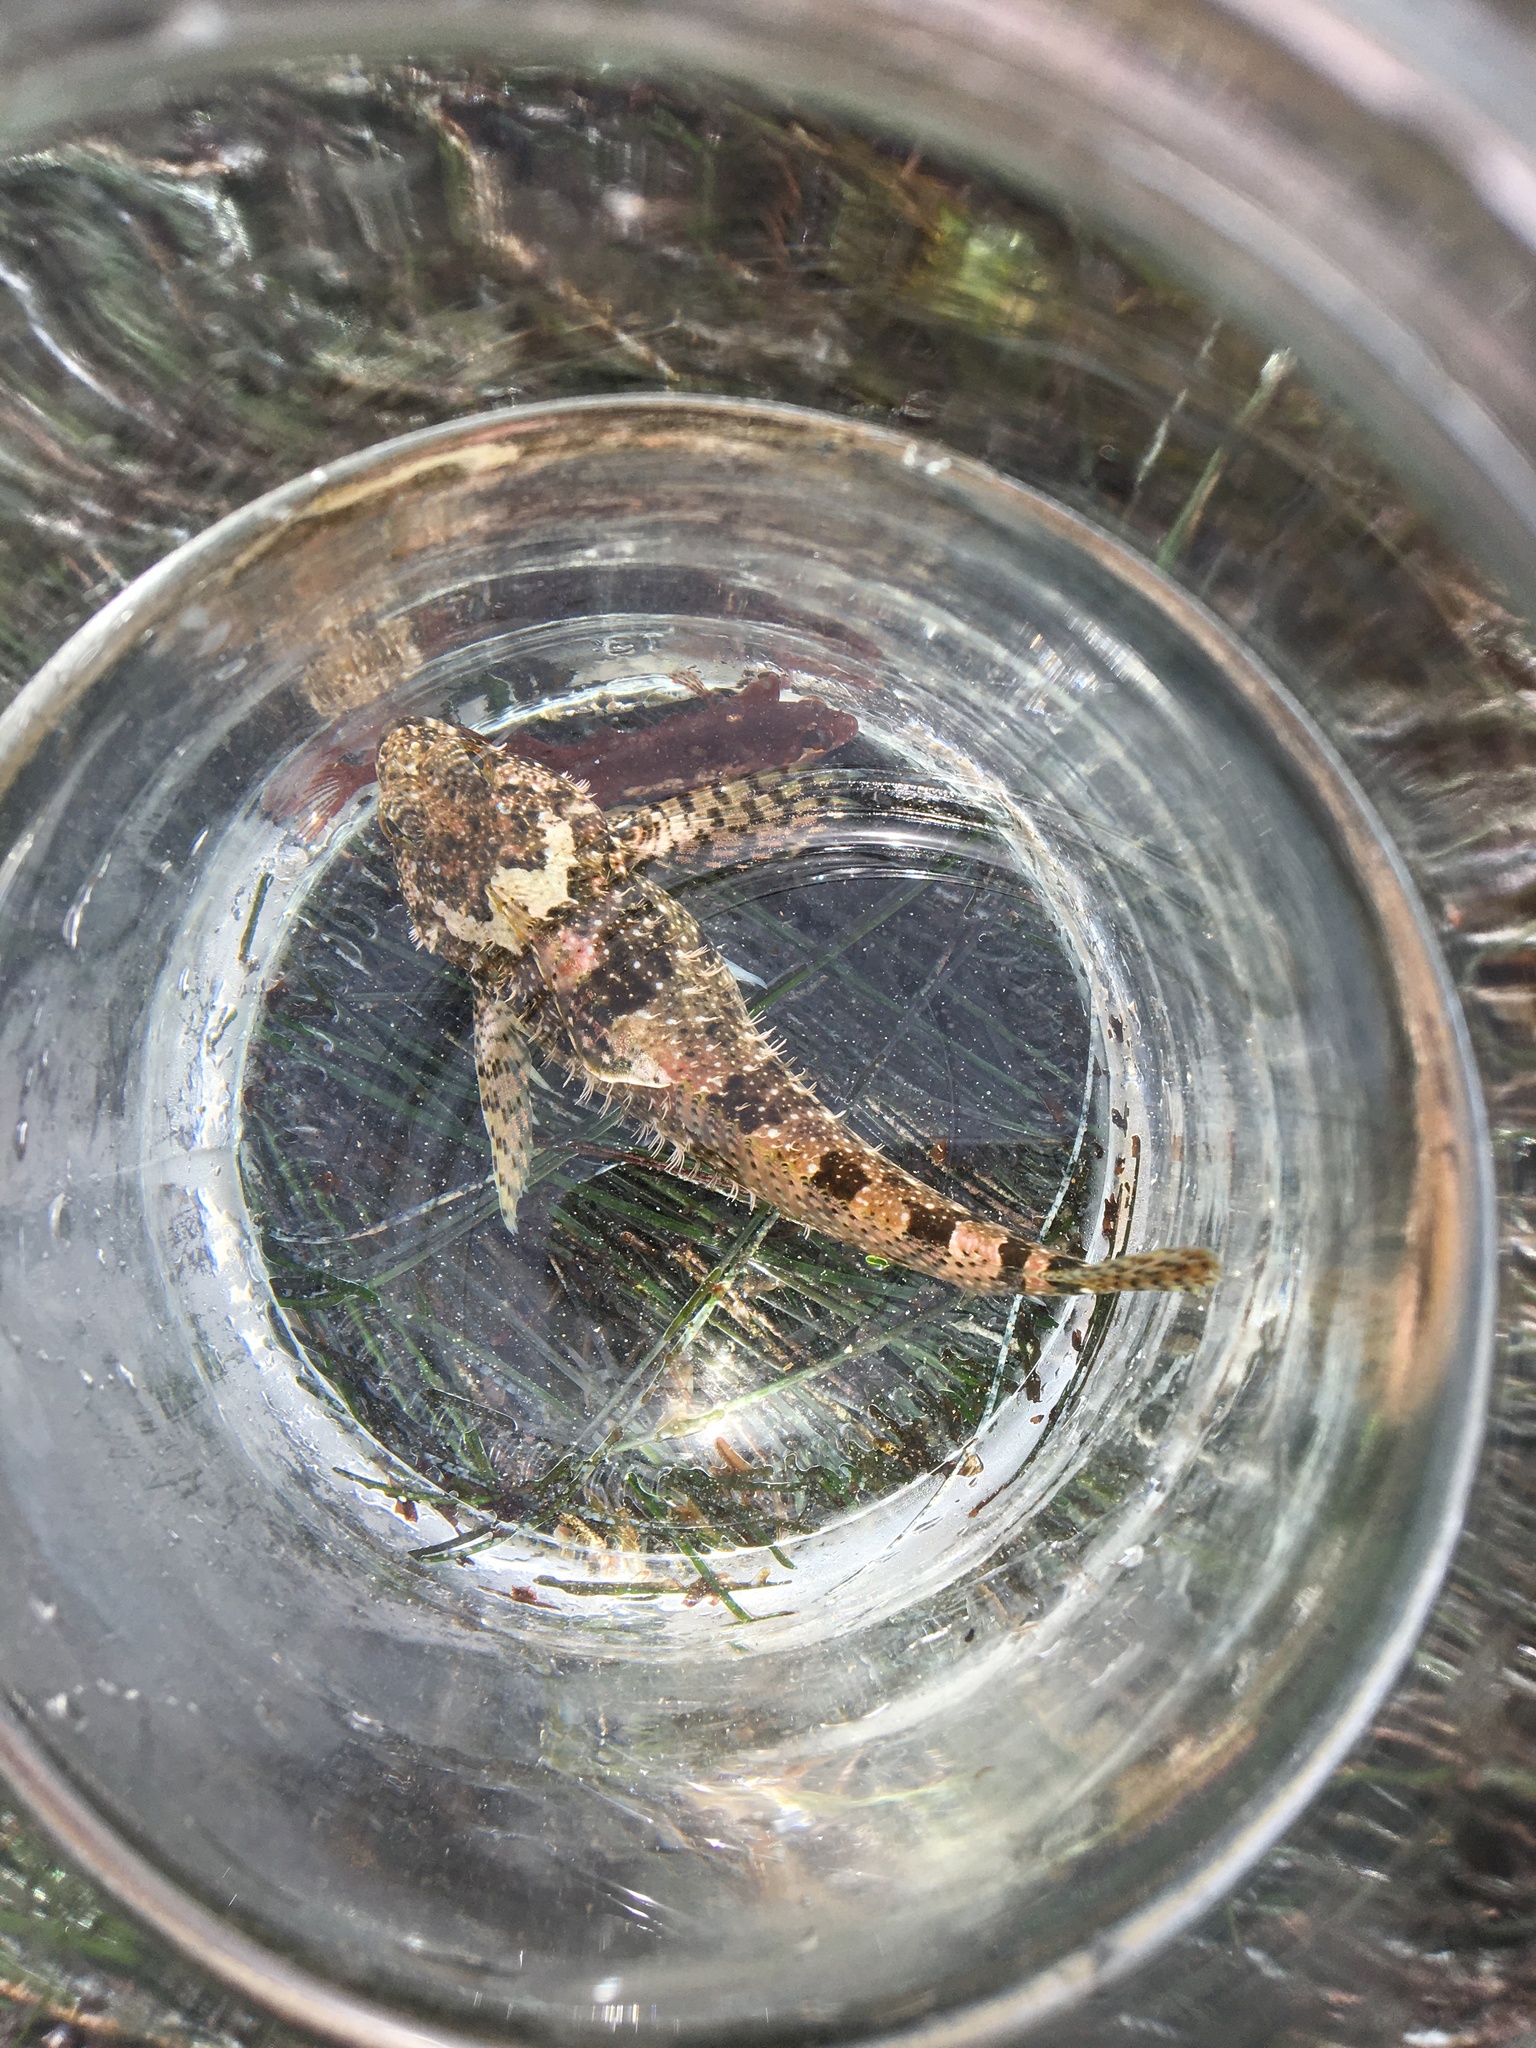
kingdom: Animalia
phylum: Chordata
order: Scorpaeniformes
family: Cottidae
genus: Clinocottus
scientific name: Clinocottus analis
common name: Woolly sculpin
